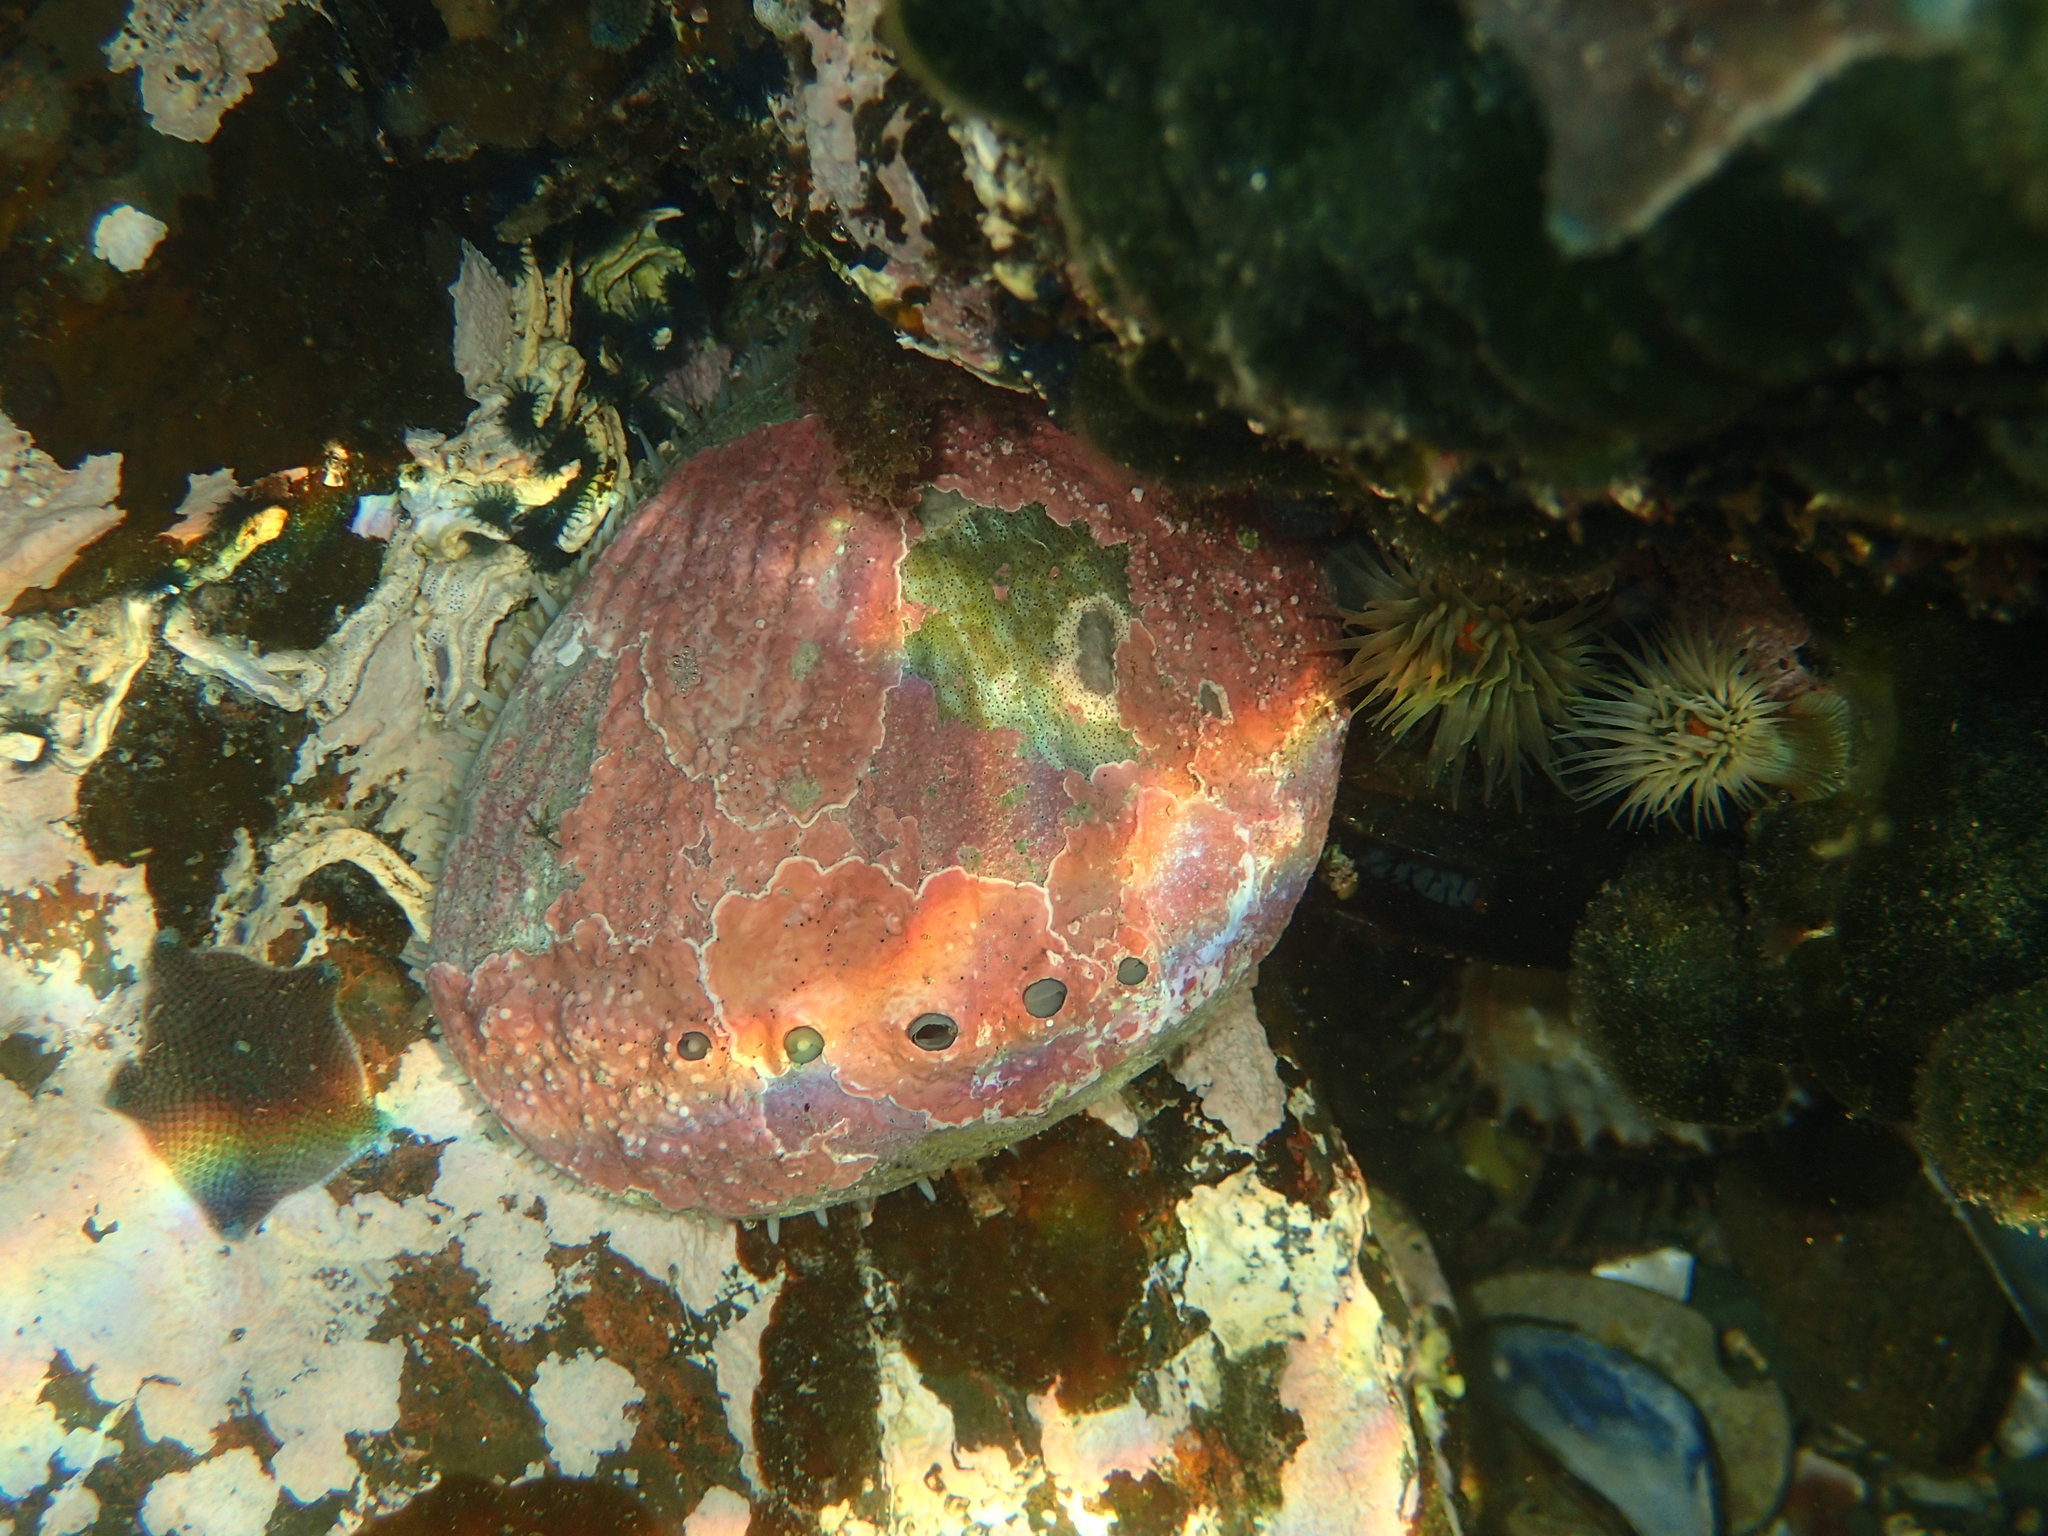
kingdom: Animalia
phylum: Mollusca
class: Gastropoda
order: Lepetellida
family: Haliotidae
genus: Haliotis
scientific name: Haliotis australis
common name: Silver abalone
